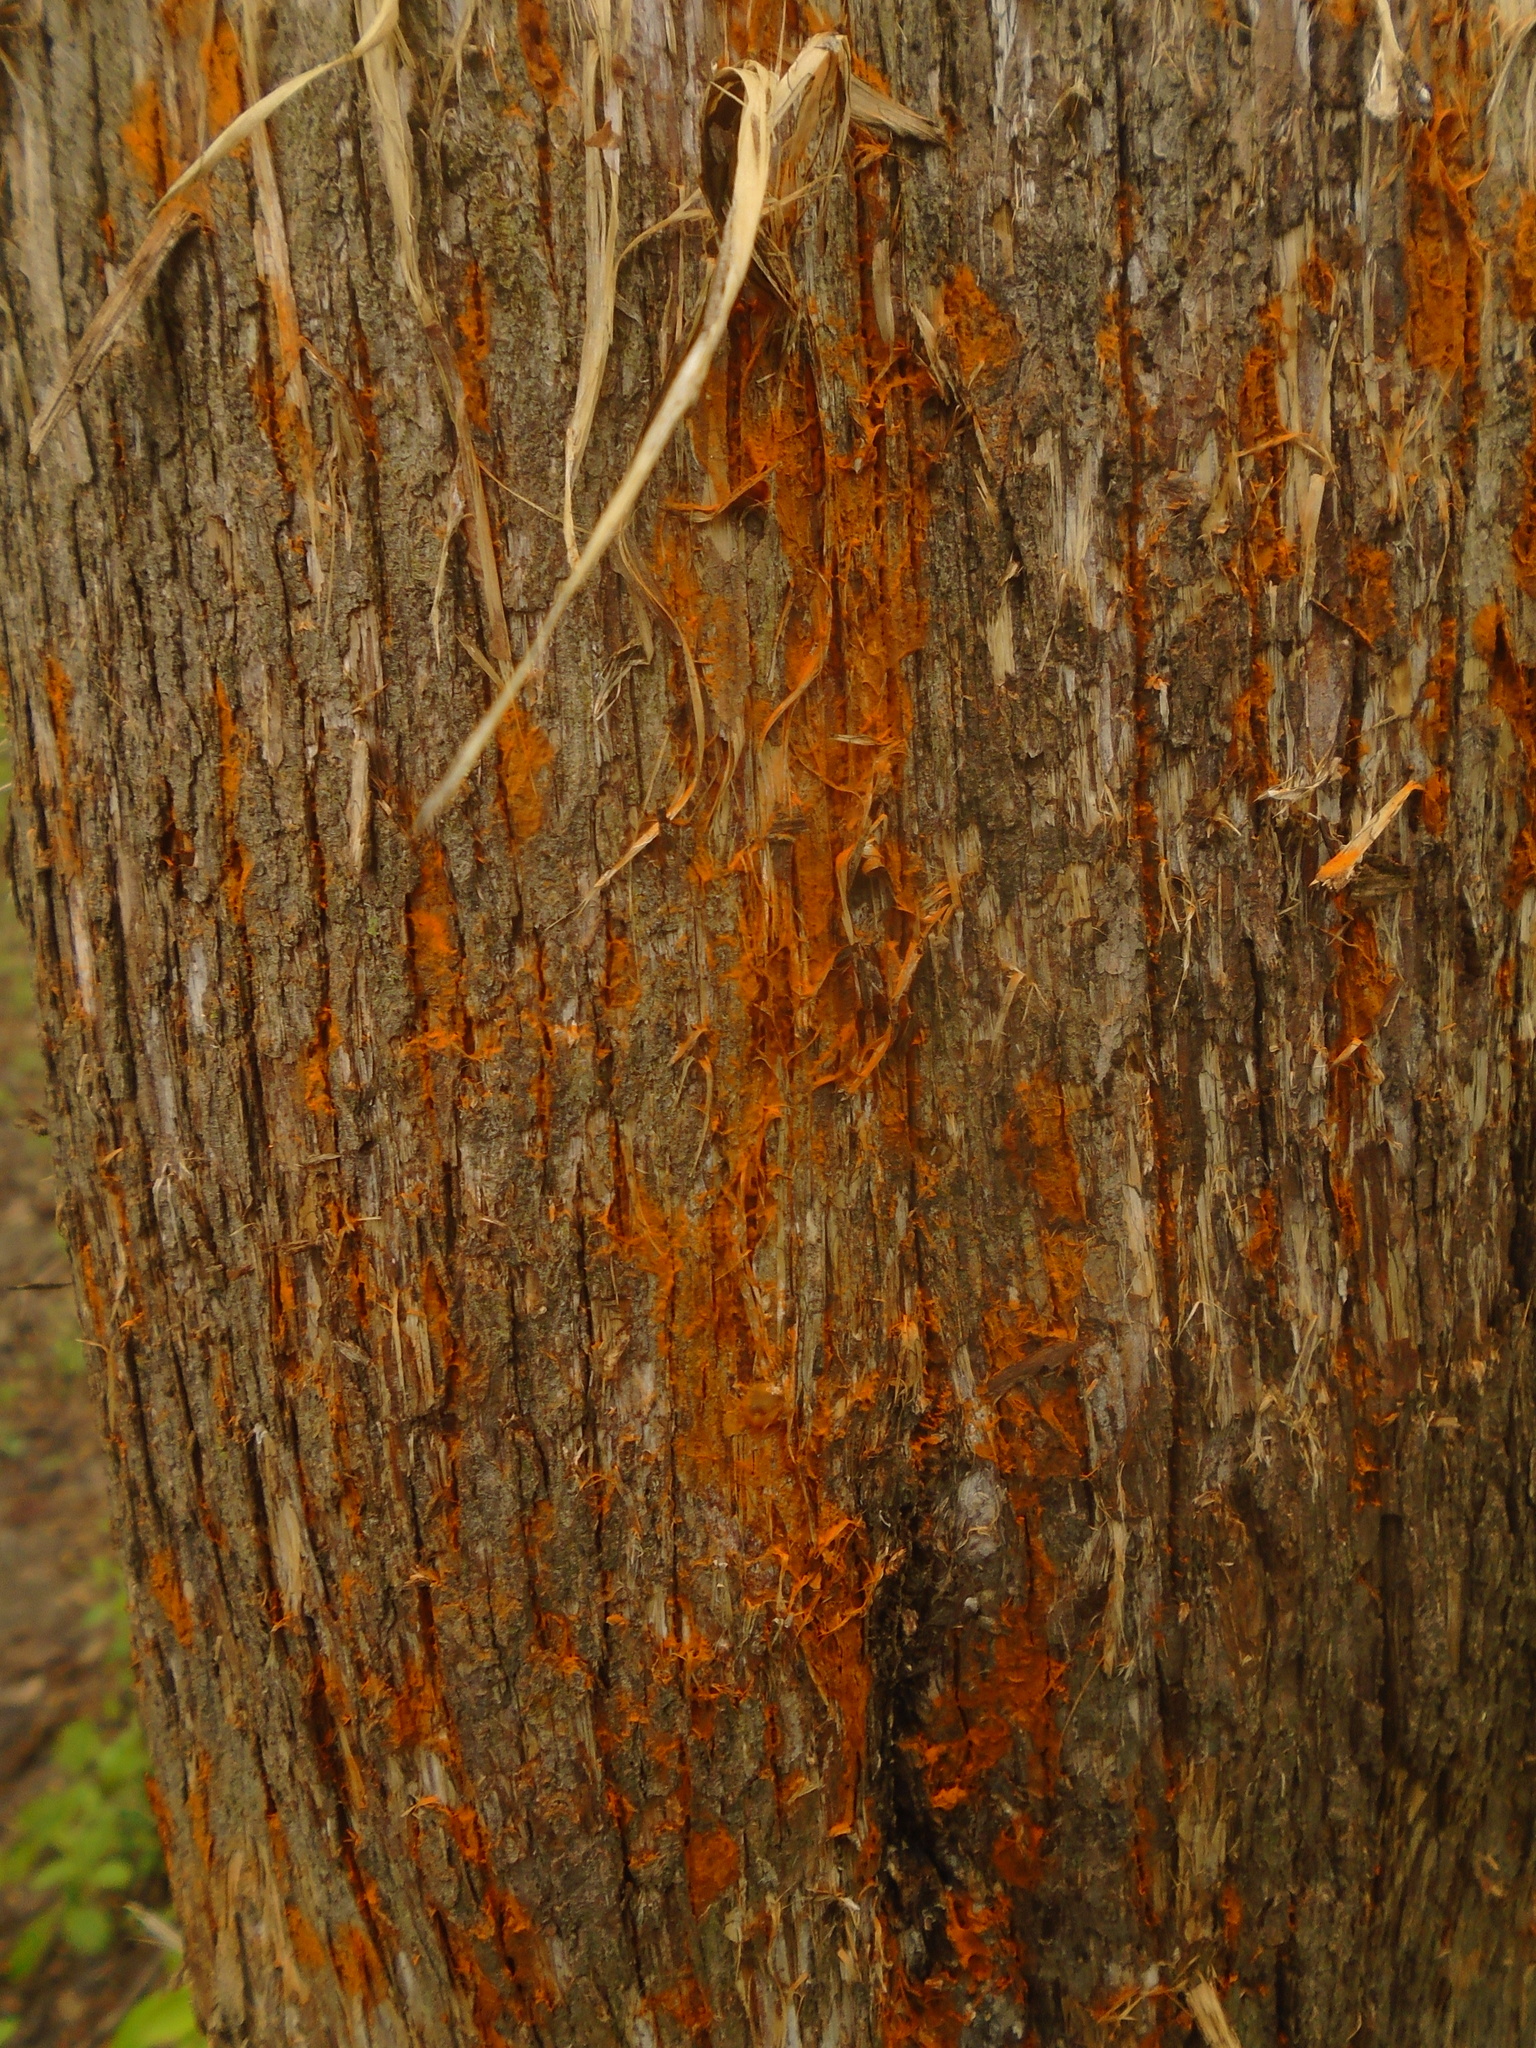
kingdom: Fungi
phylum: Basidiomycota
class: Pucciniomycetes
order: Pucciniales
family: Gymnosporangiaceae
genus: Gymnosporangium
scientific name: Gymnosporangium juniperi-virginianae
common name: Juniper-apple rust
